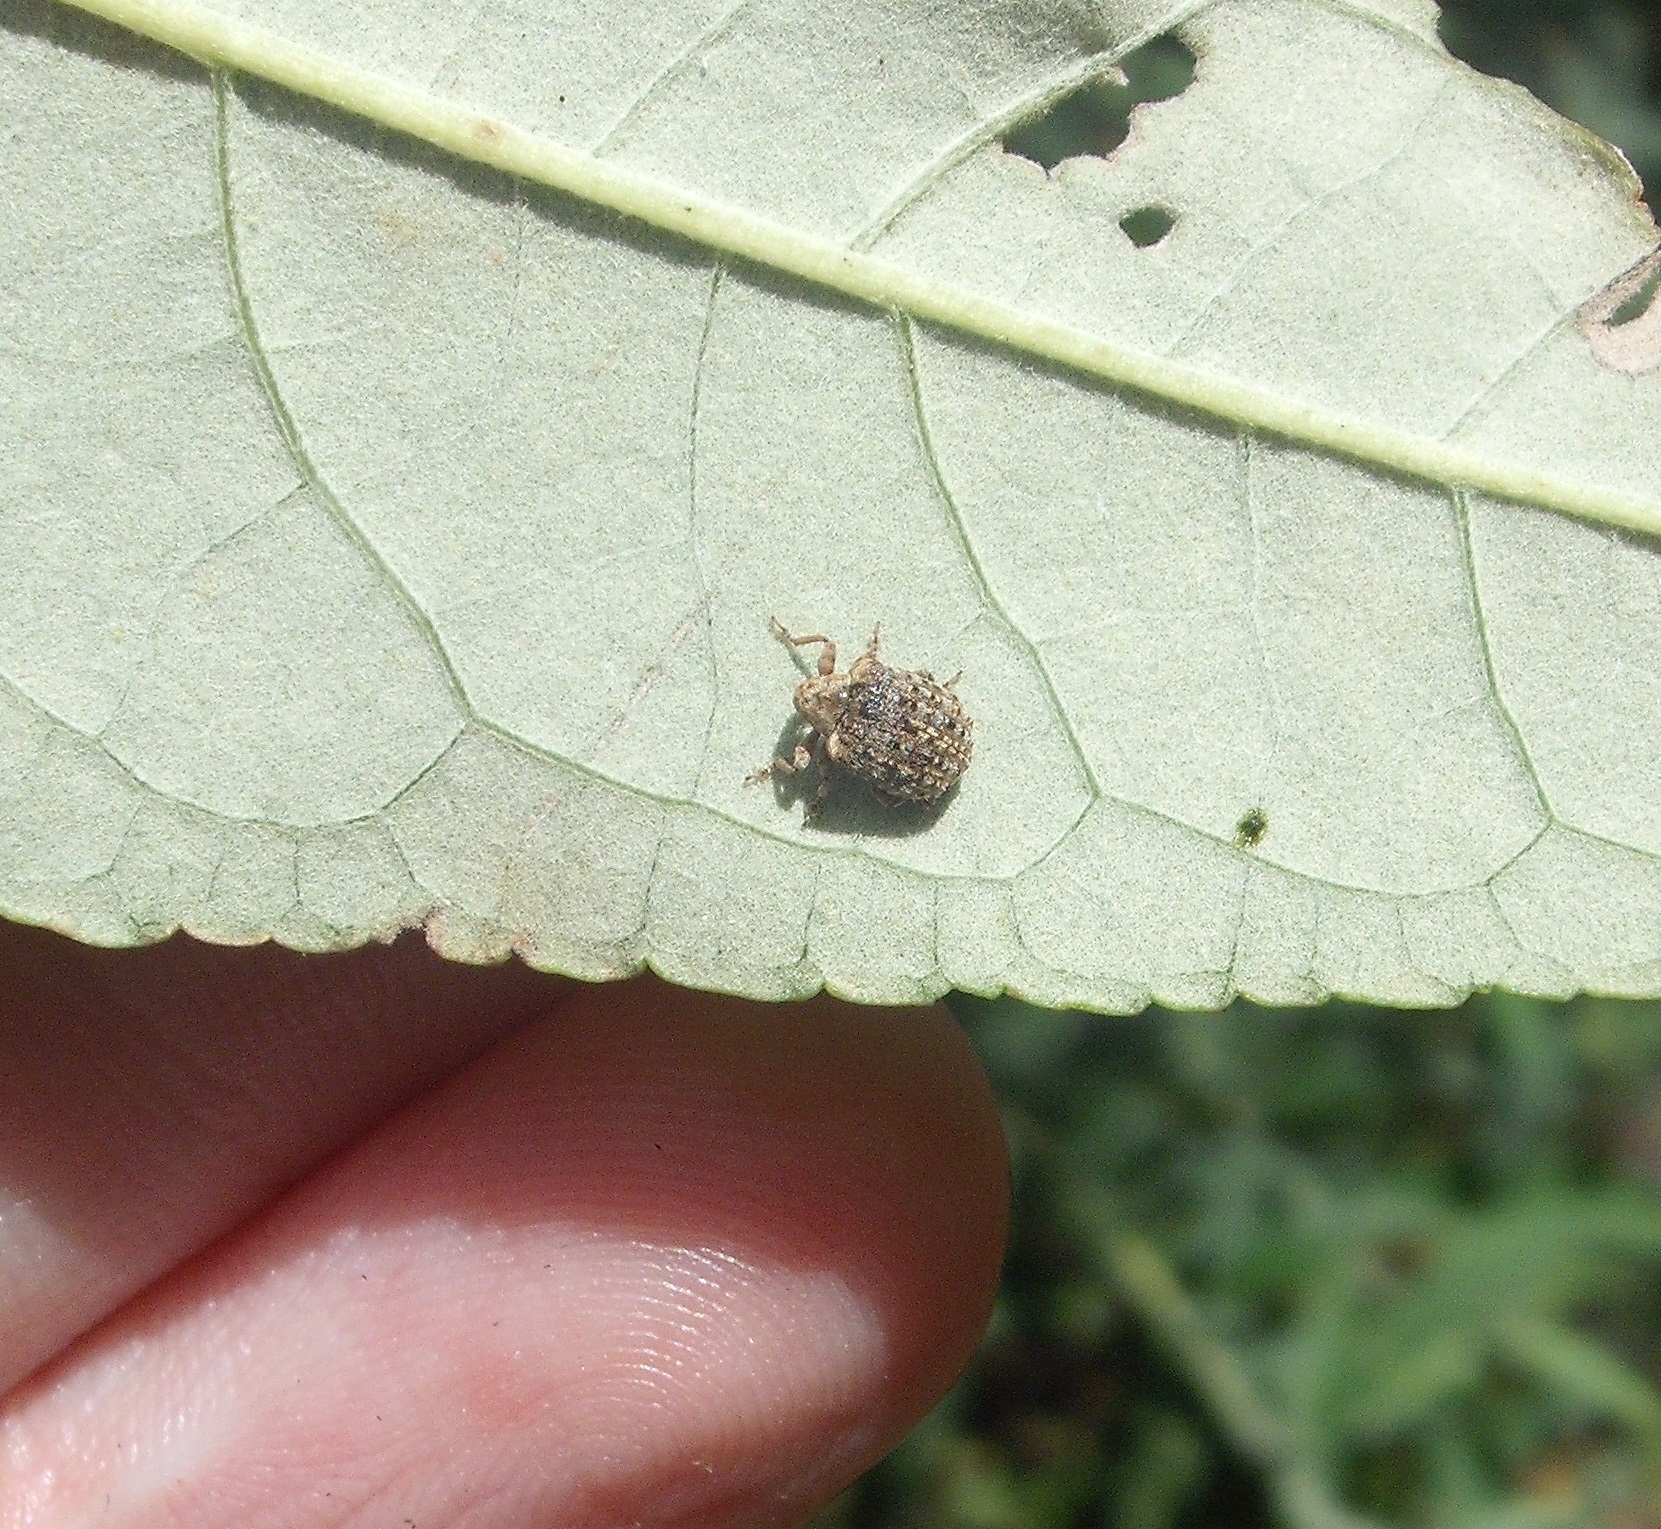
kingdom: Animalia
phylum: Arthropoda
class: Insecta
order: Coleoptera
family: Curculionidae
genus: Cleopus
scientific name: Cleopus japonicus
